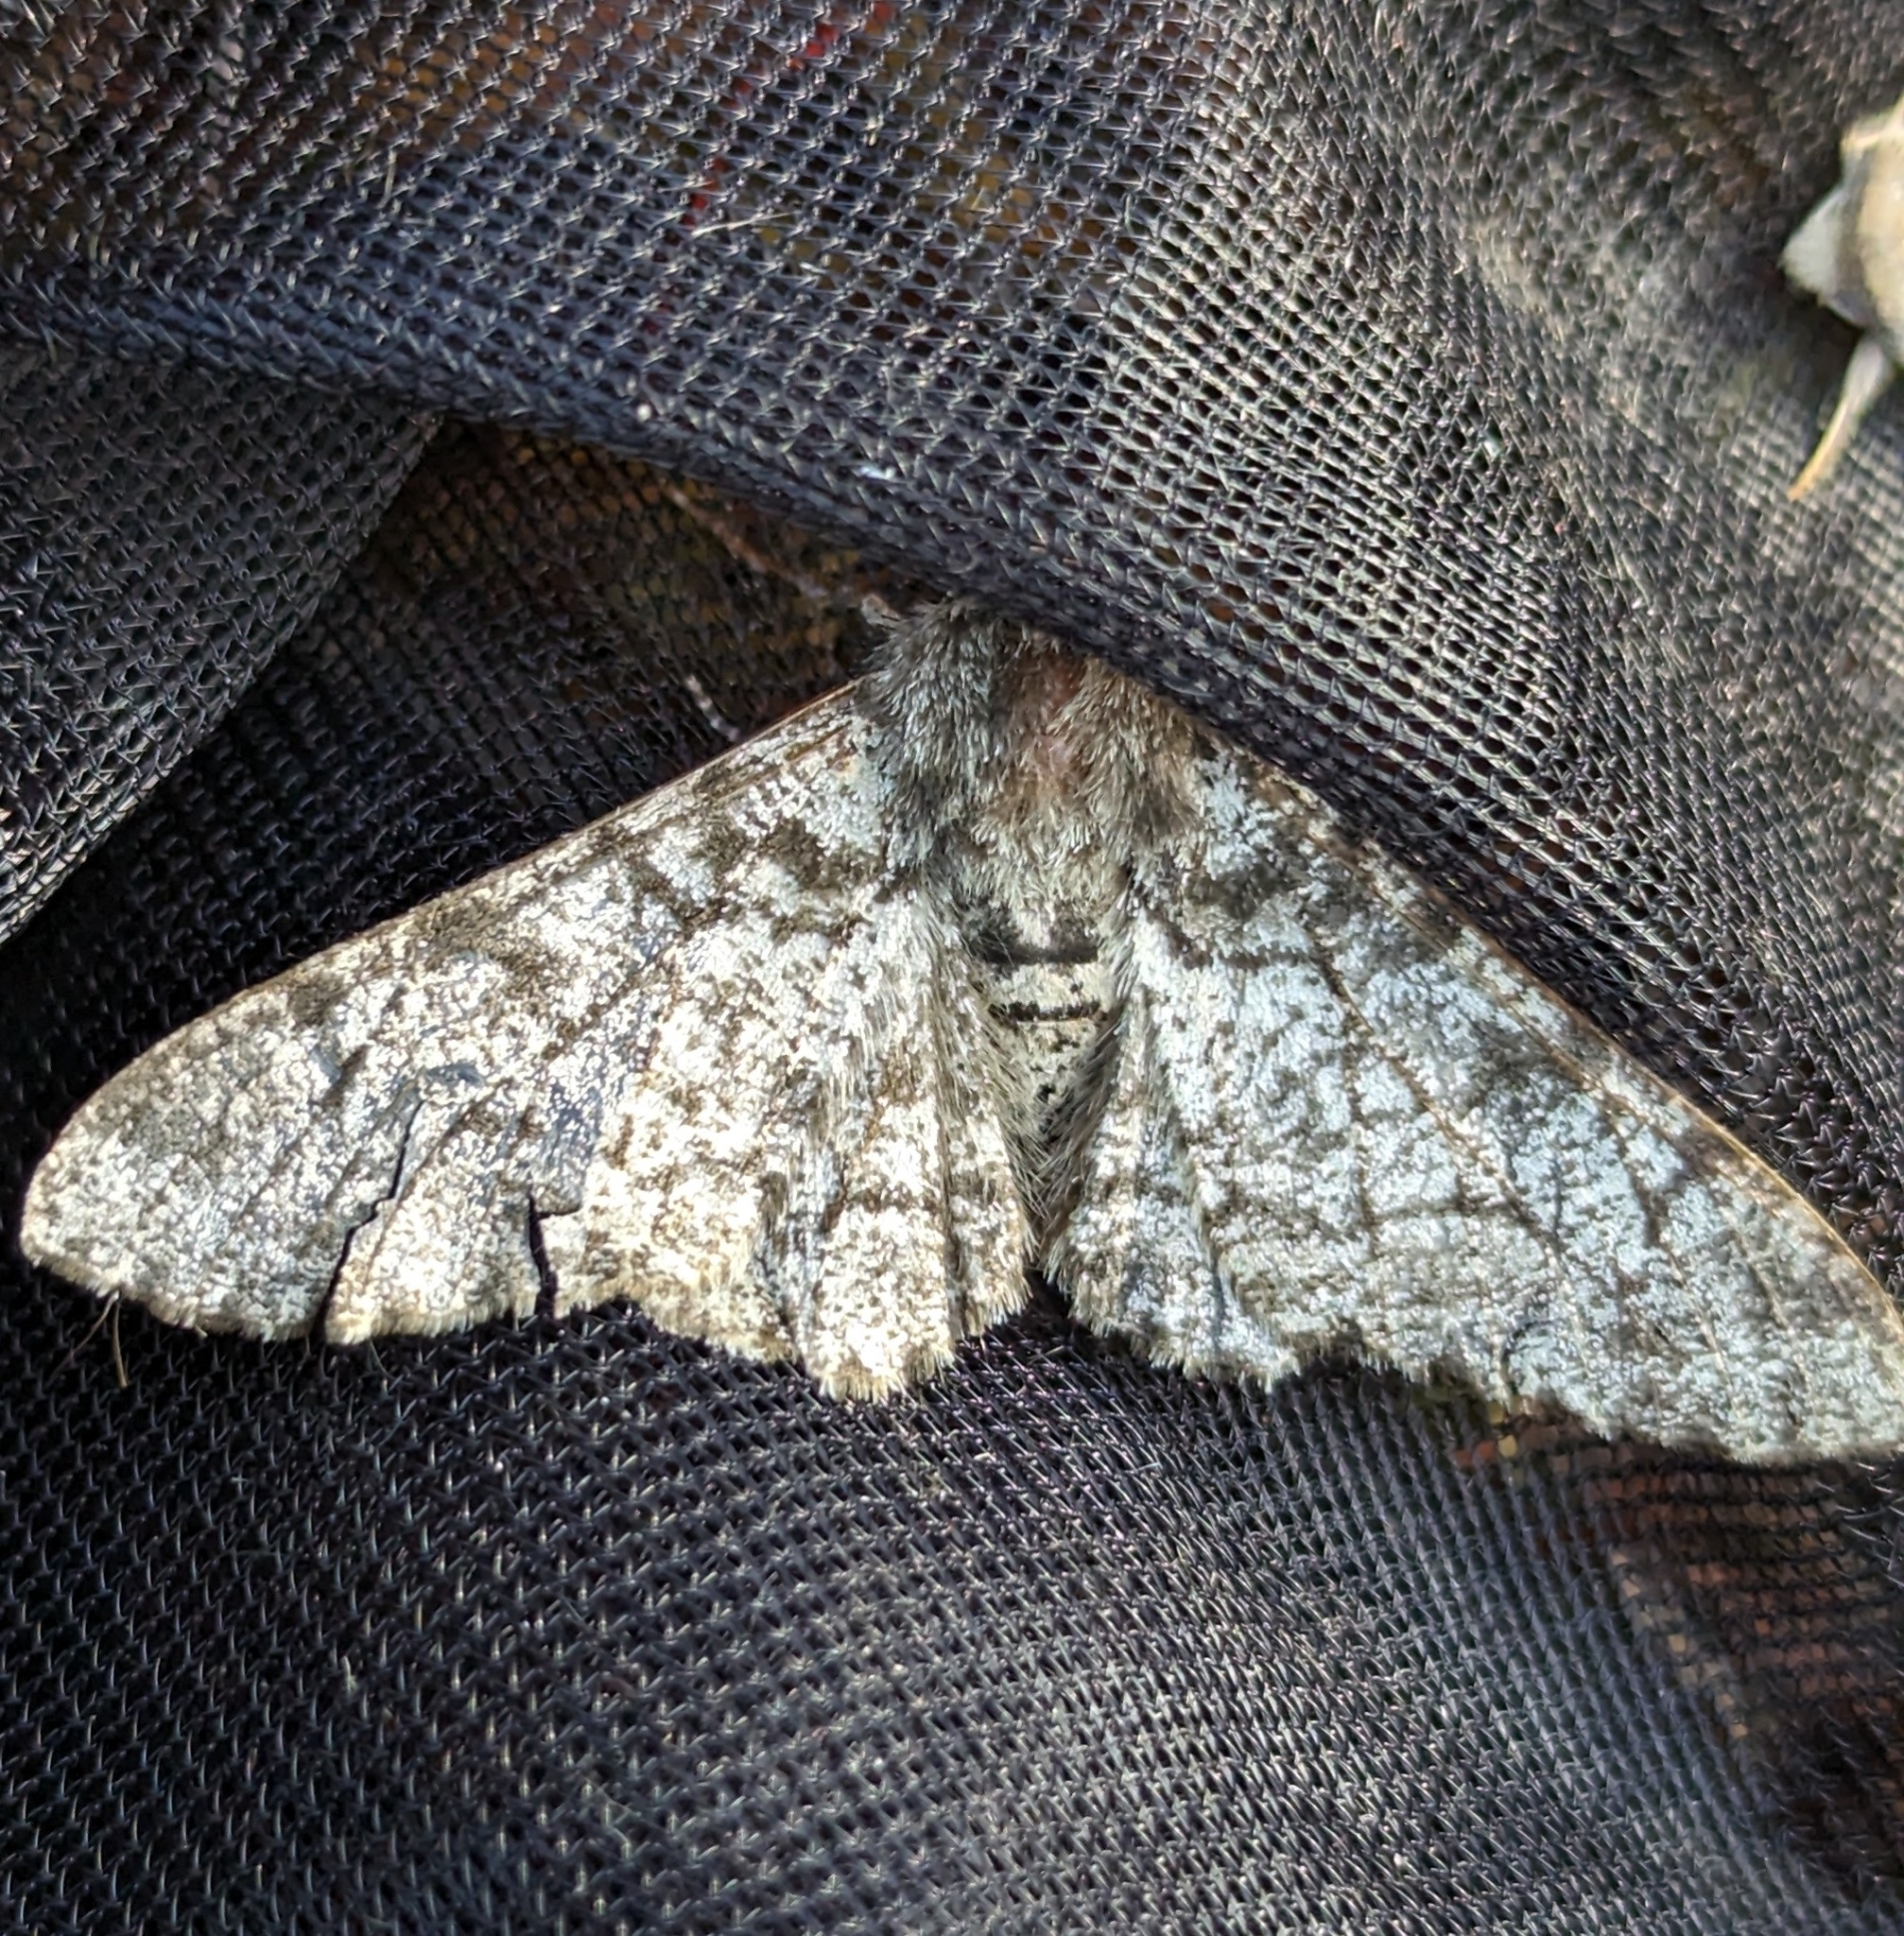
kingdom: Animalia
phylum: Arthropoda
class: Insecta
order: Lepidoptera
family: Geometridae
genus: Biston
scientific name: Biston betularia
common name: Peppered moth
